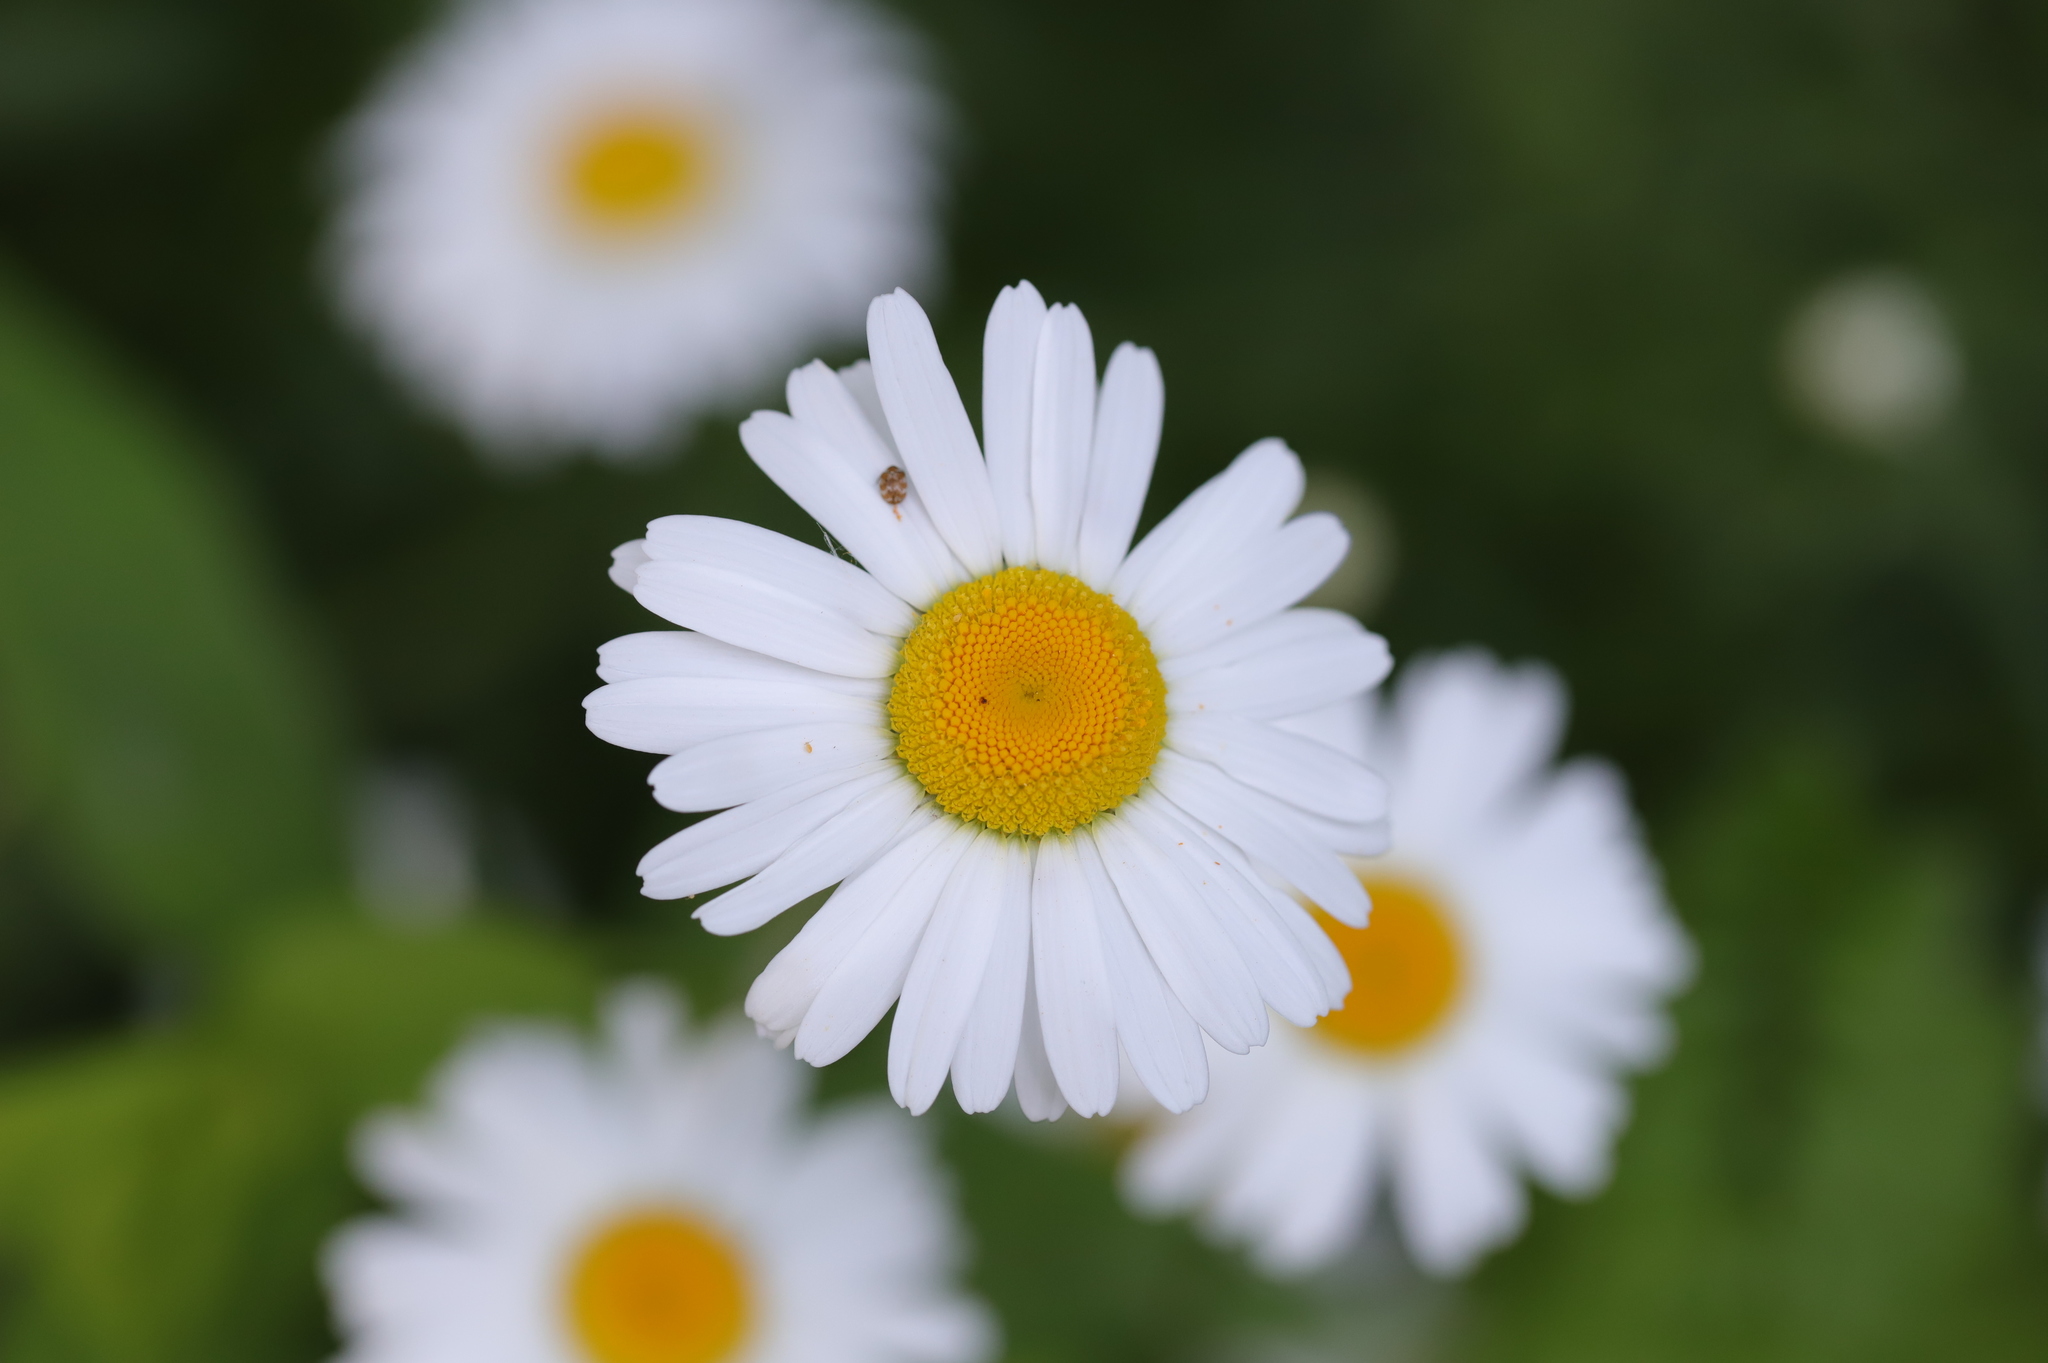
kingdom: Plantae
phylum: Tracheophyta
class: Magnoliopsida
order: Asterales
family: Asteraceae
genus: Leucanthemum
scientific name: Leucanthemum vulgare
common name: Oxeye daisy
